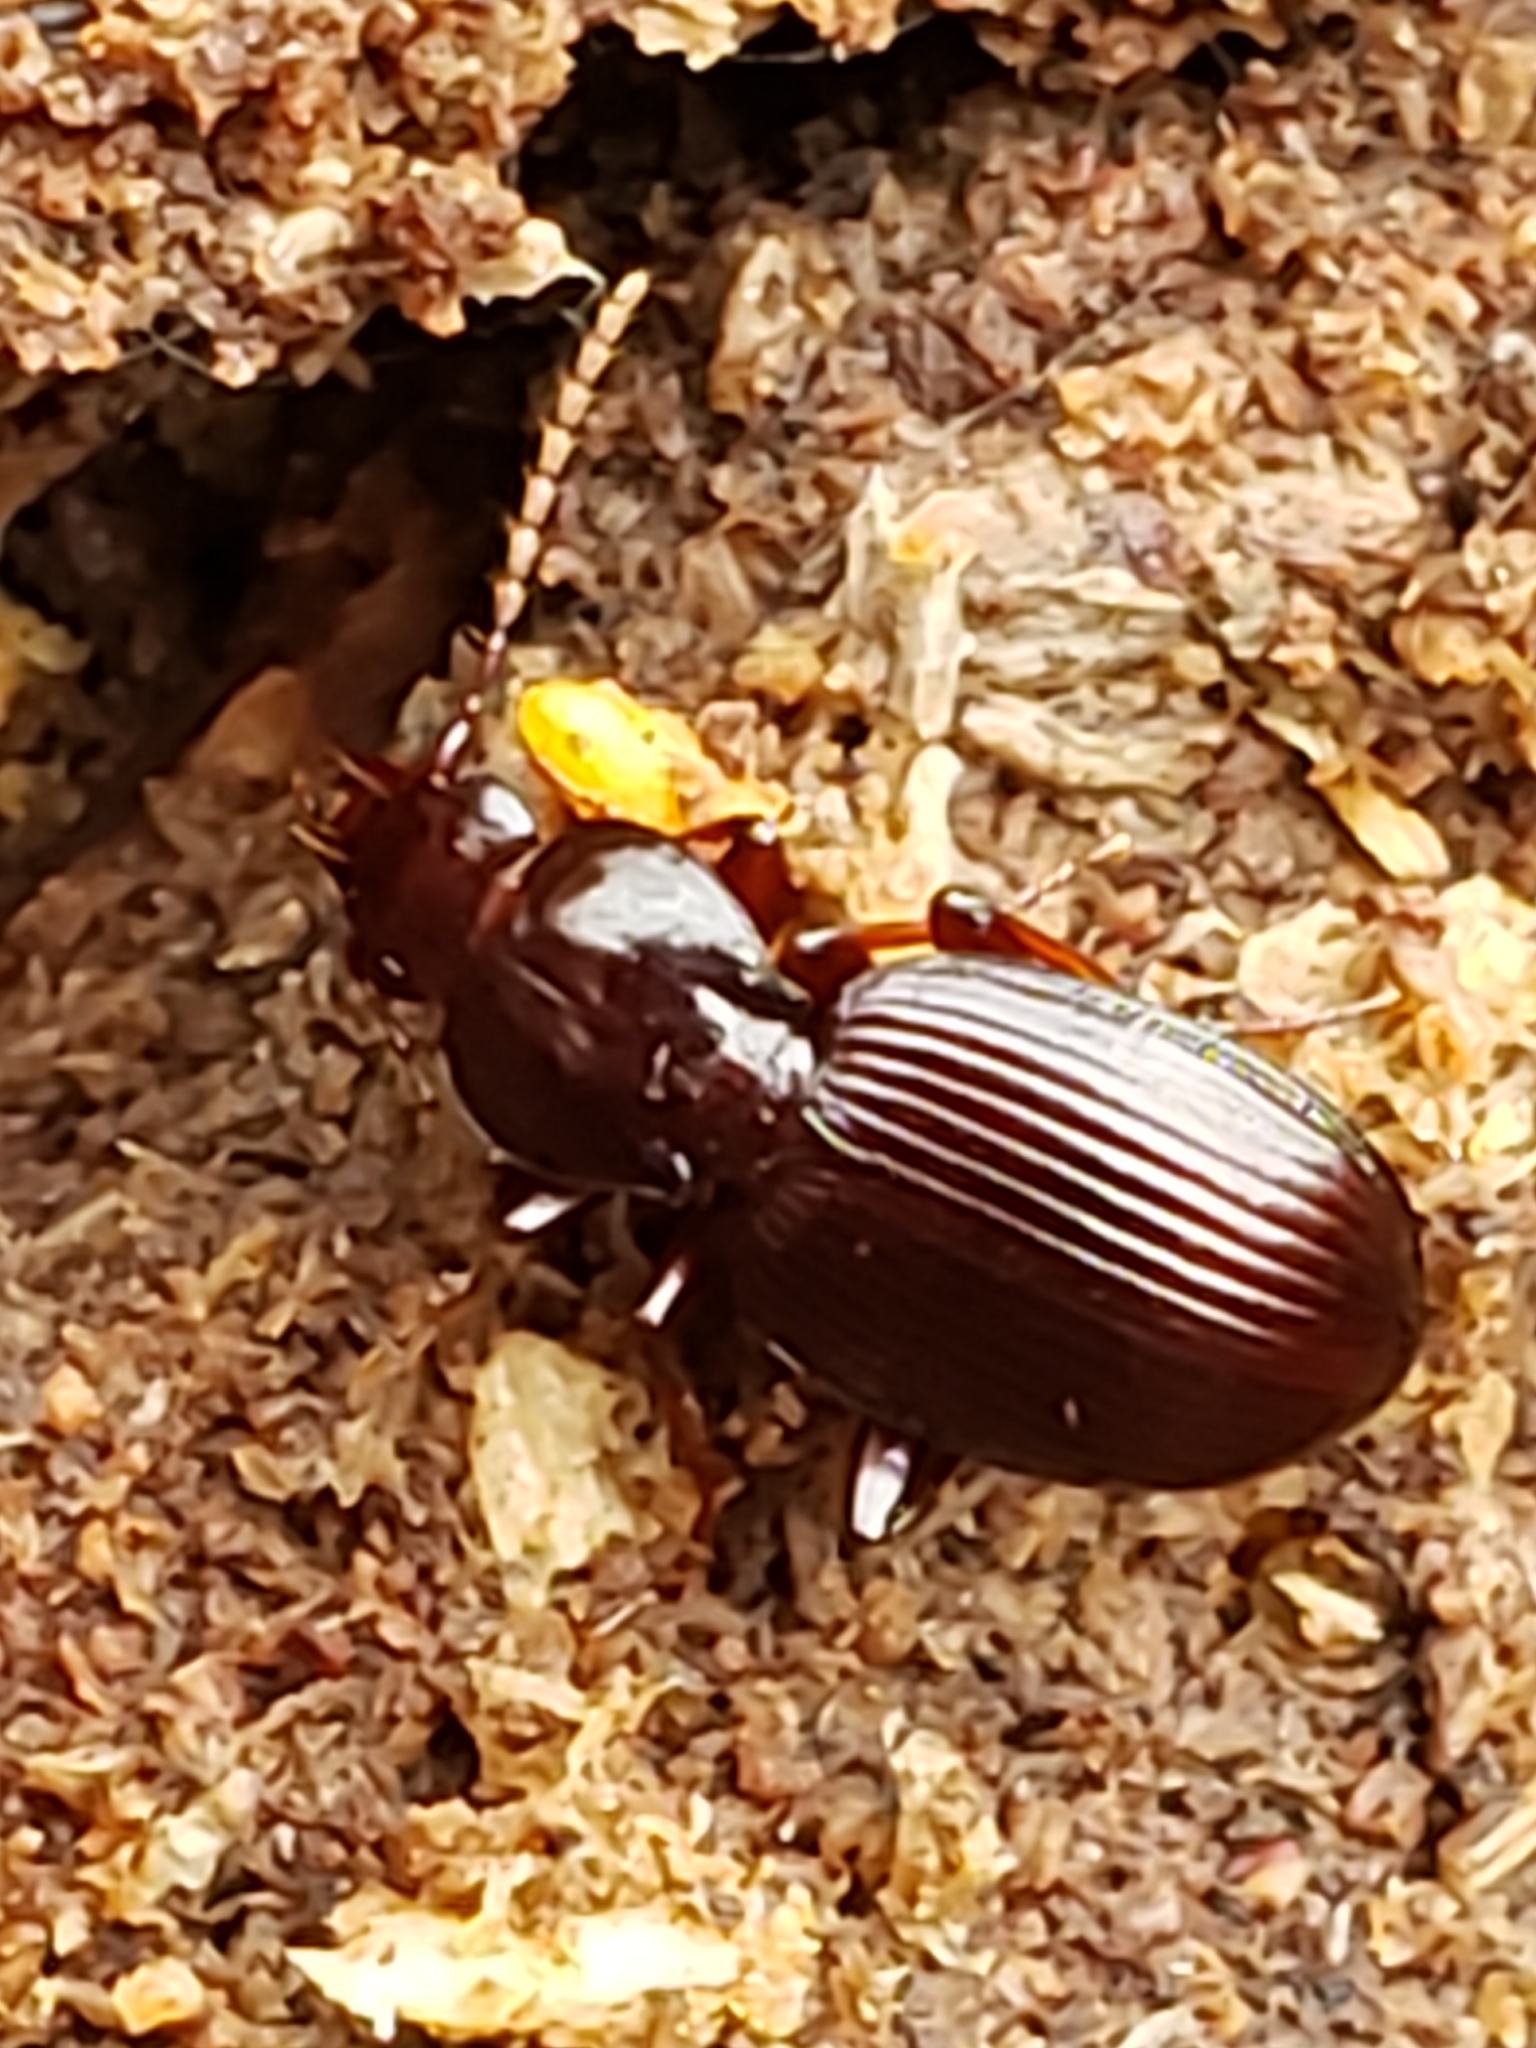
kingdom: Animalia
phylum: Arthropoda
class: Insecta
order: Coleoptera
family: Carabidae
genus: Gastrellarius
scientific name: Gastrellarius honestus
